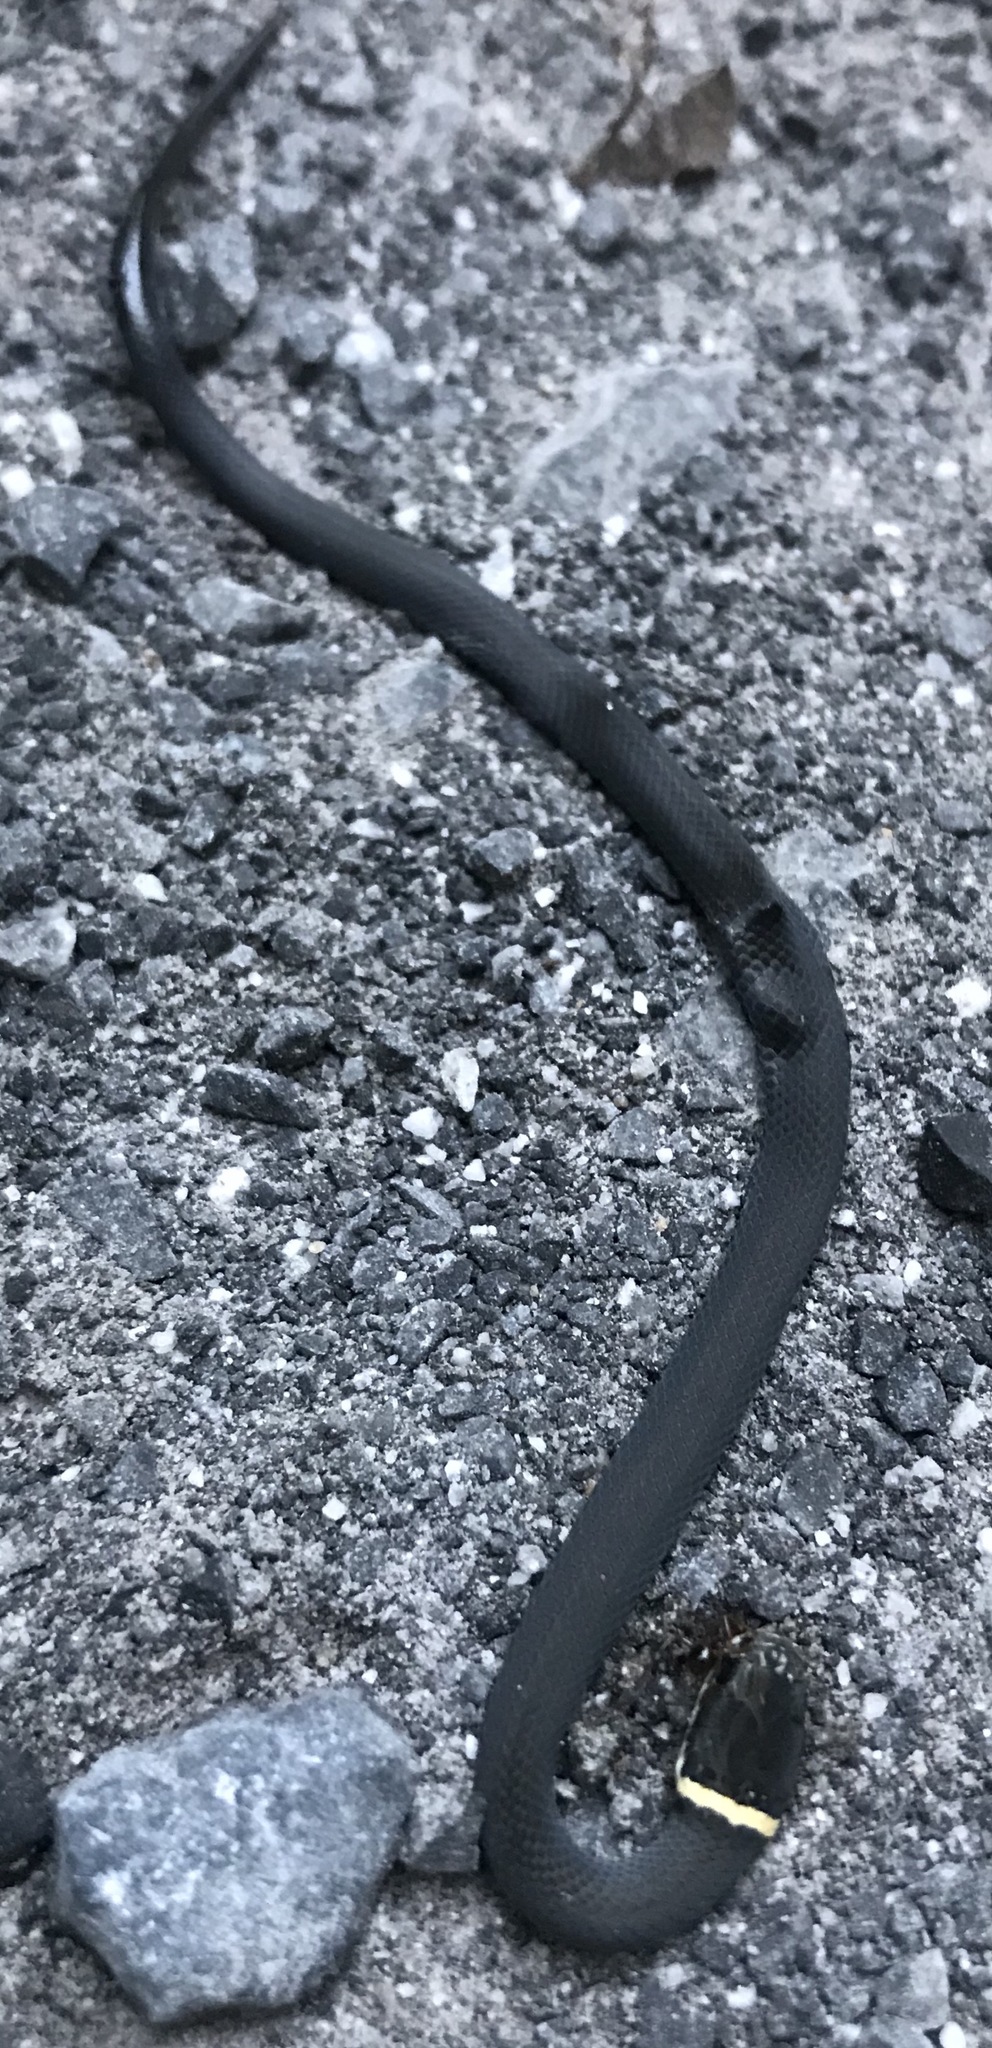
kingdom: Animalia
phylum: Chordata
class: Squamata
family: Colubridae
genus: Diadophis
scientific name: Diadophis punctatus
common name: Ringneck snake
